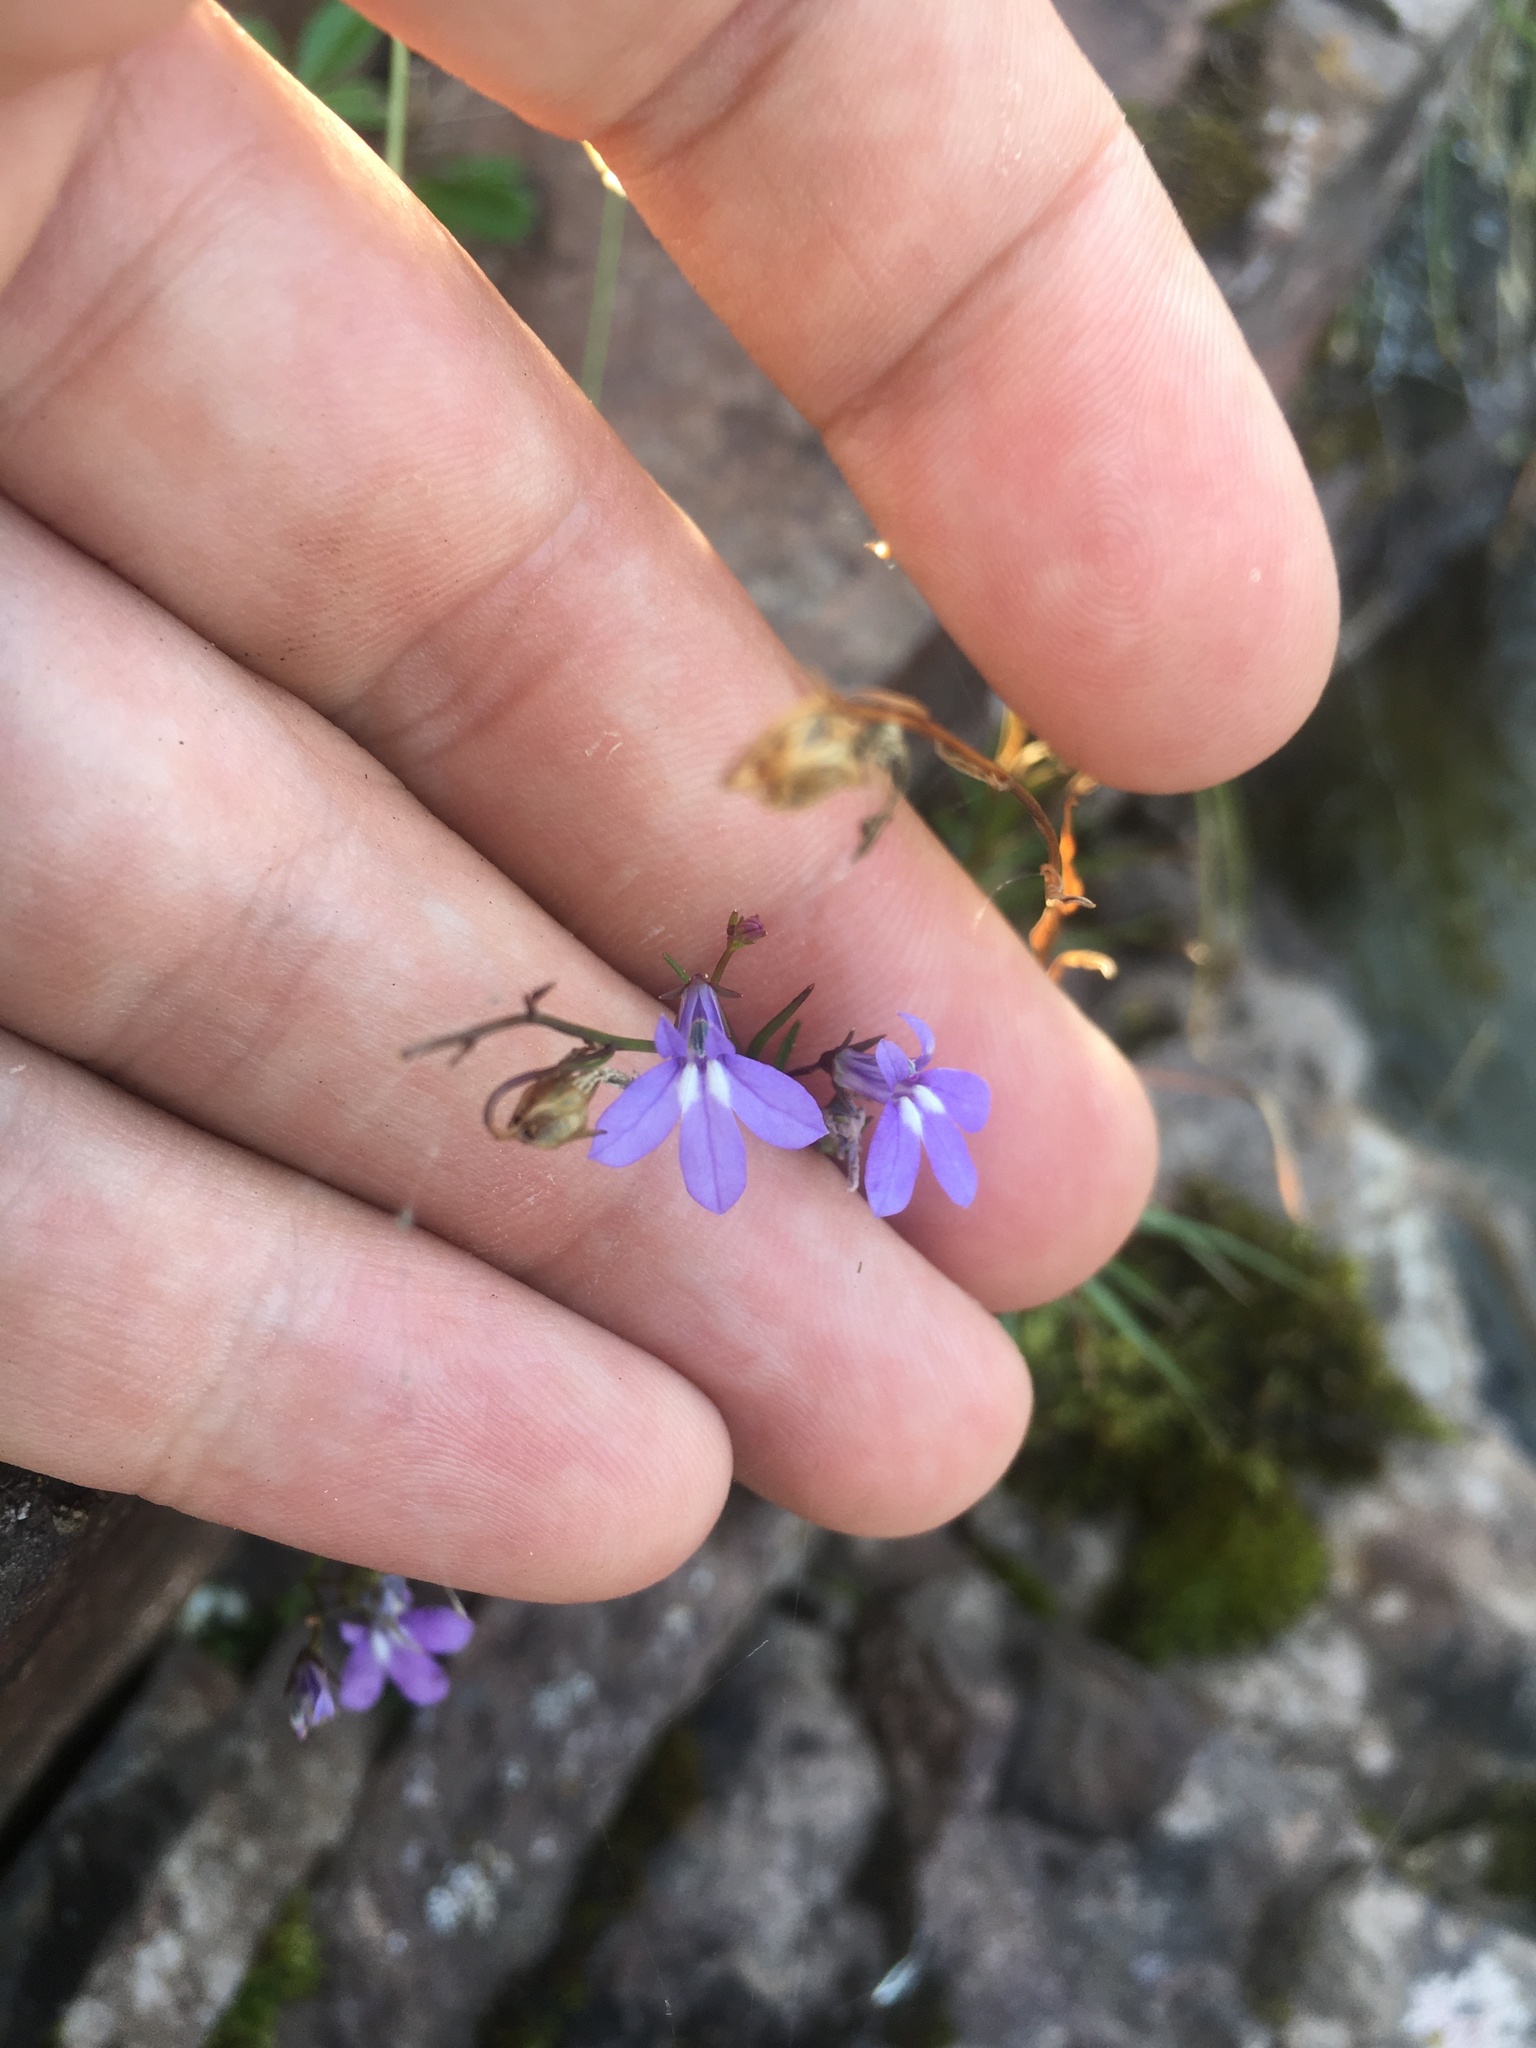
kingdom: Plantae
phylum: Tracheophyta
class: Magnoliopsida
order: Asterales
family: Campanulaceae
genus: Lobelia
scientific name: Lobelia kalmii
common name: Kalm's lobelia
